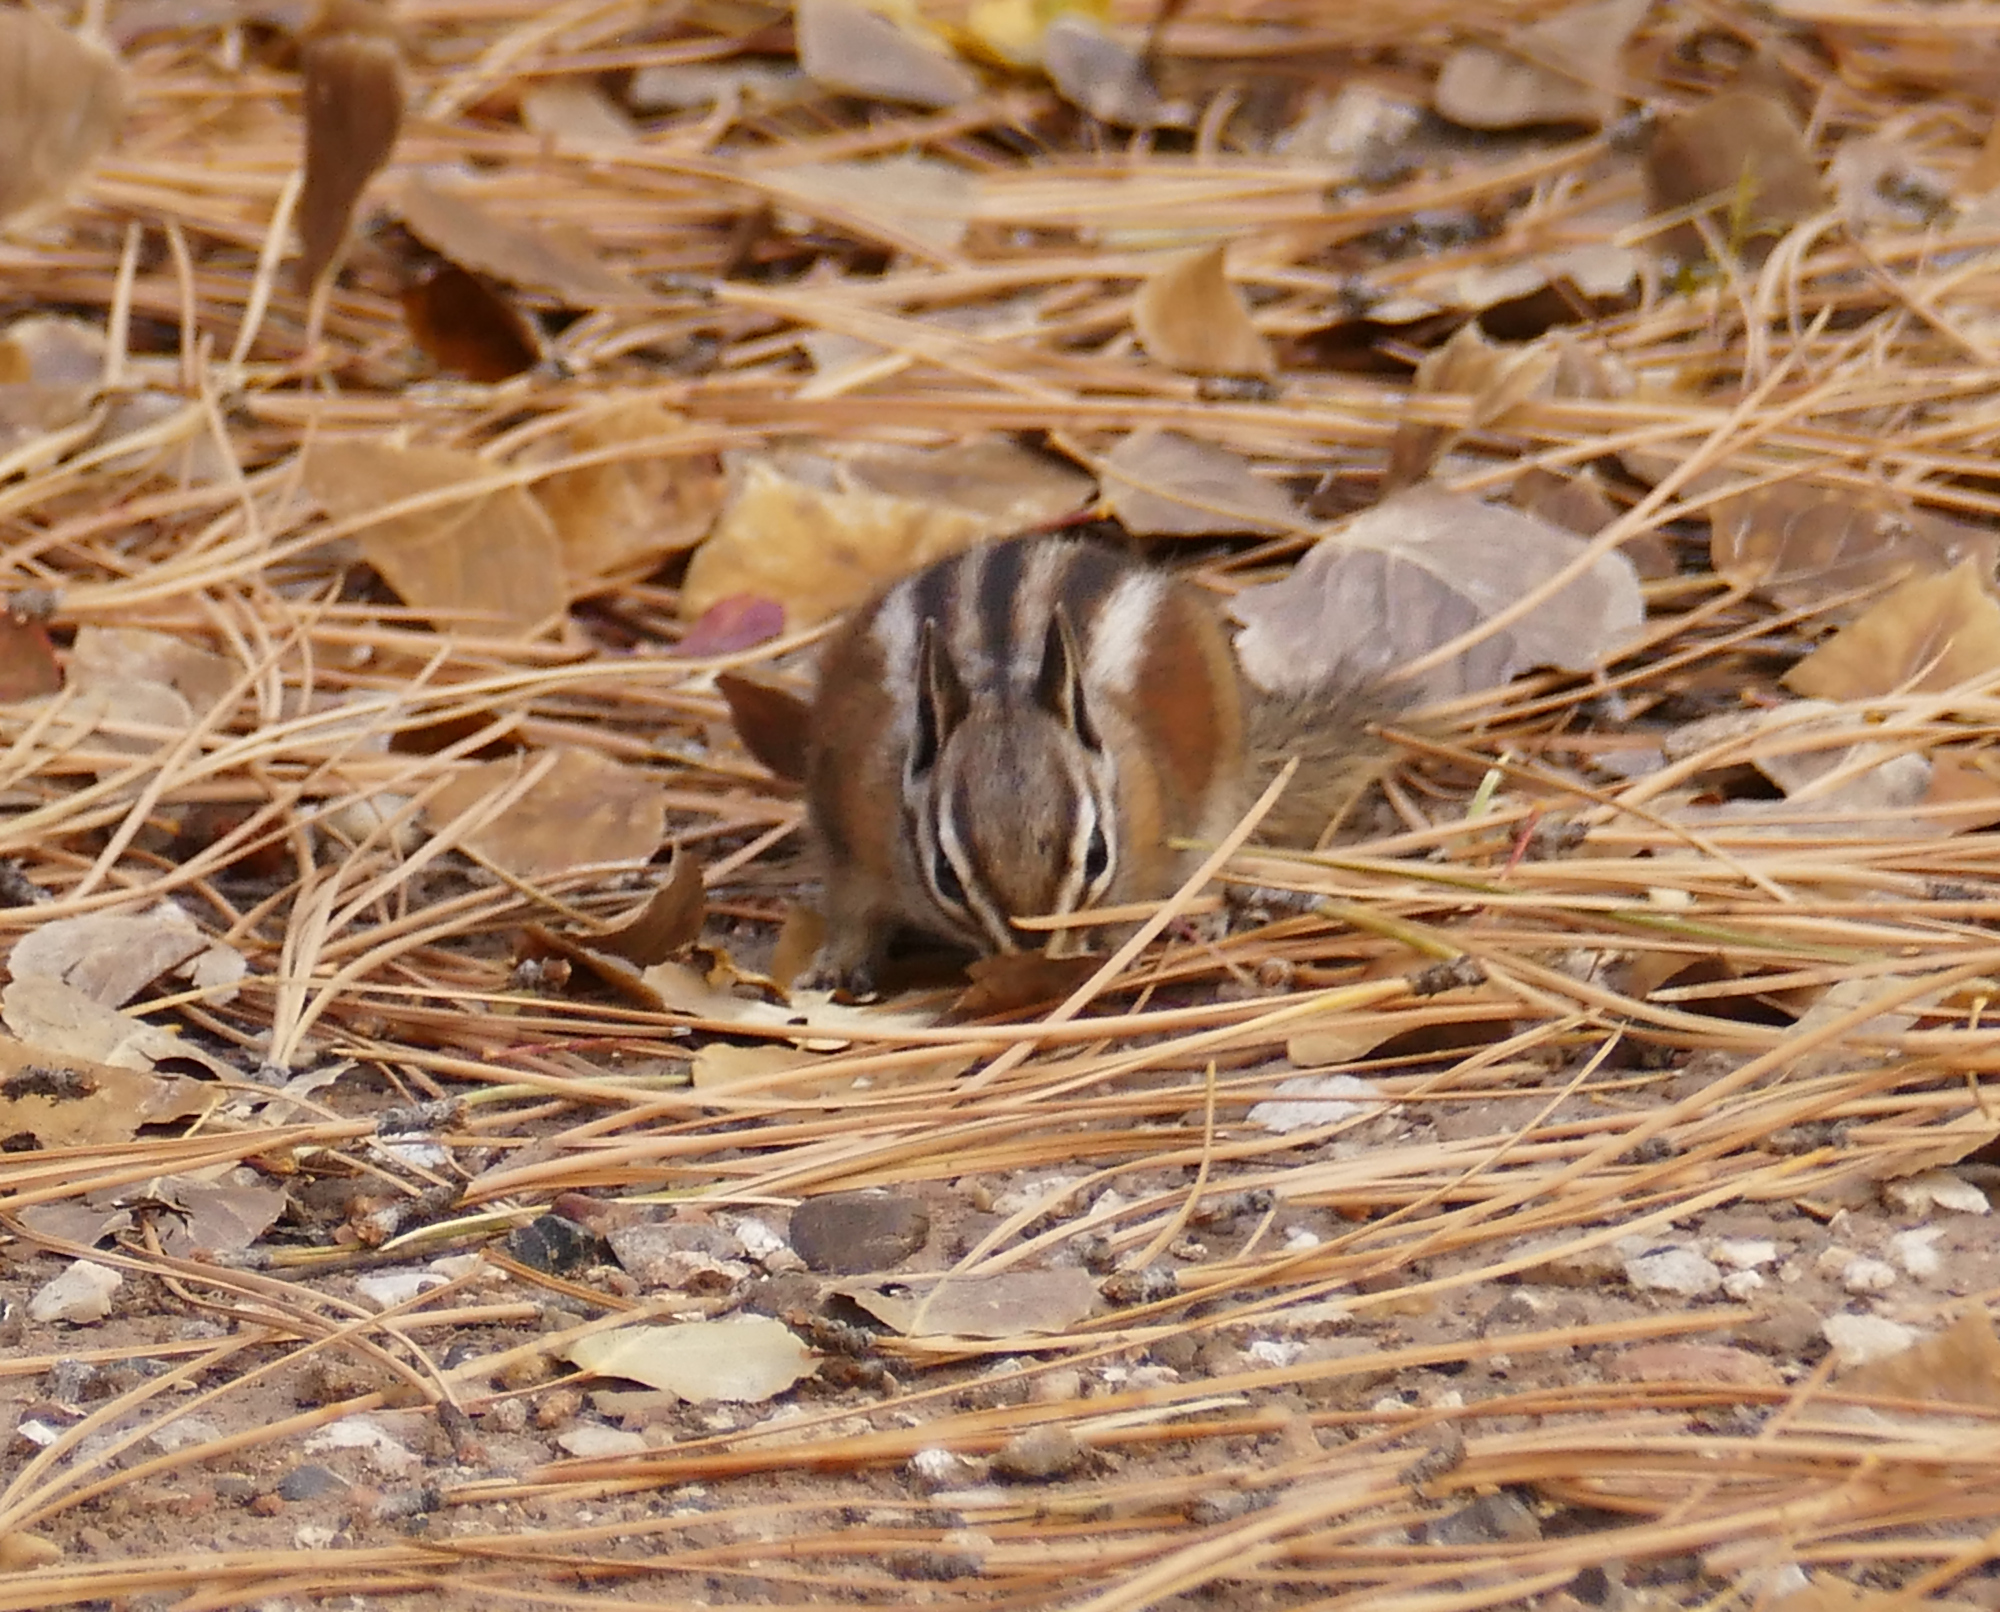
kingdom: Animalia
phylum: Chordata
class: Mammalia
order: Rodentia
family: Sciuridae
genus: Tamias
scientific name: Tamias umbrinus
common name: Uinta chipmunk
